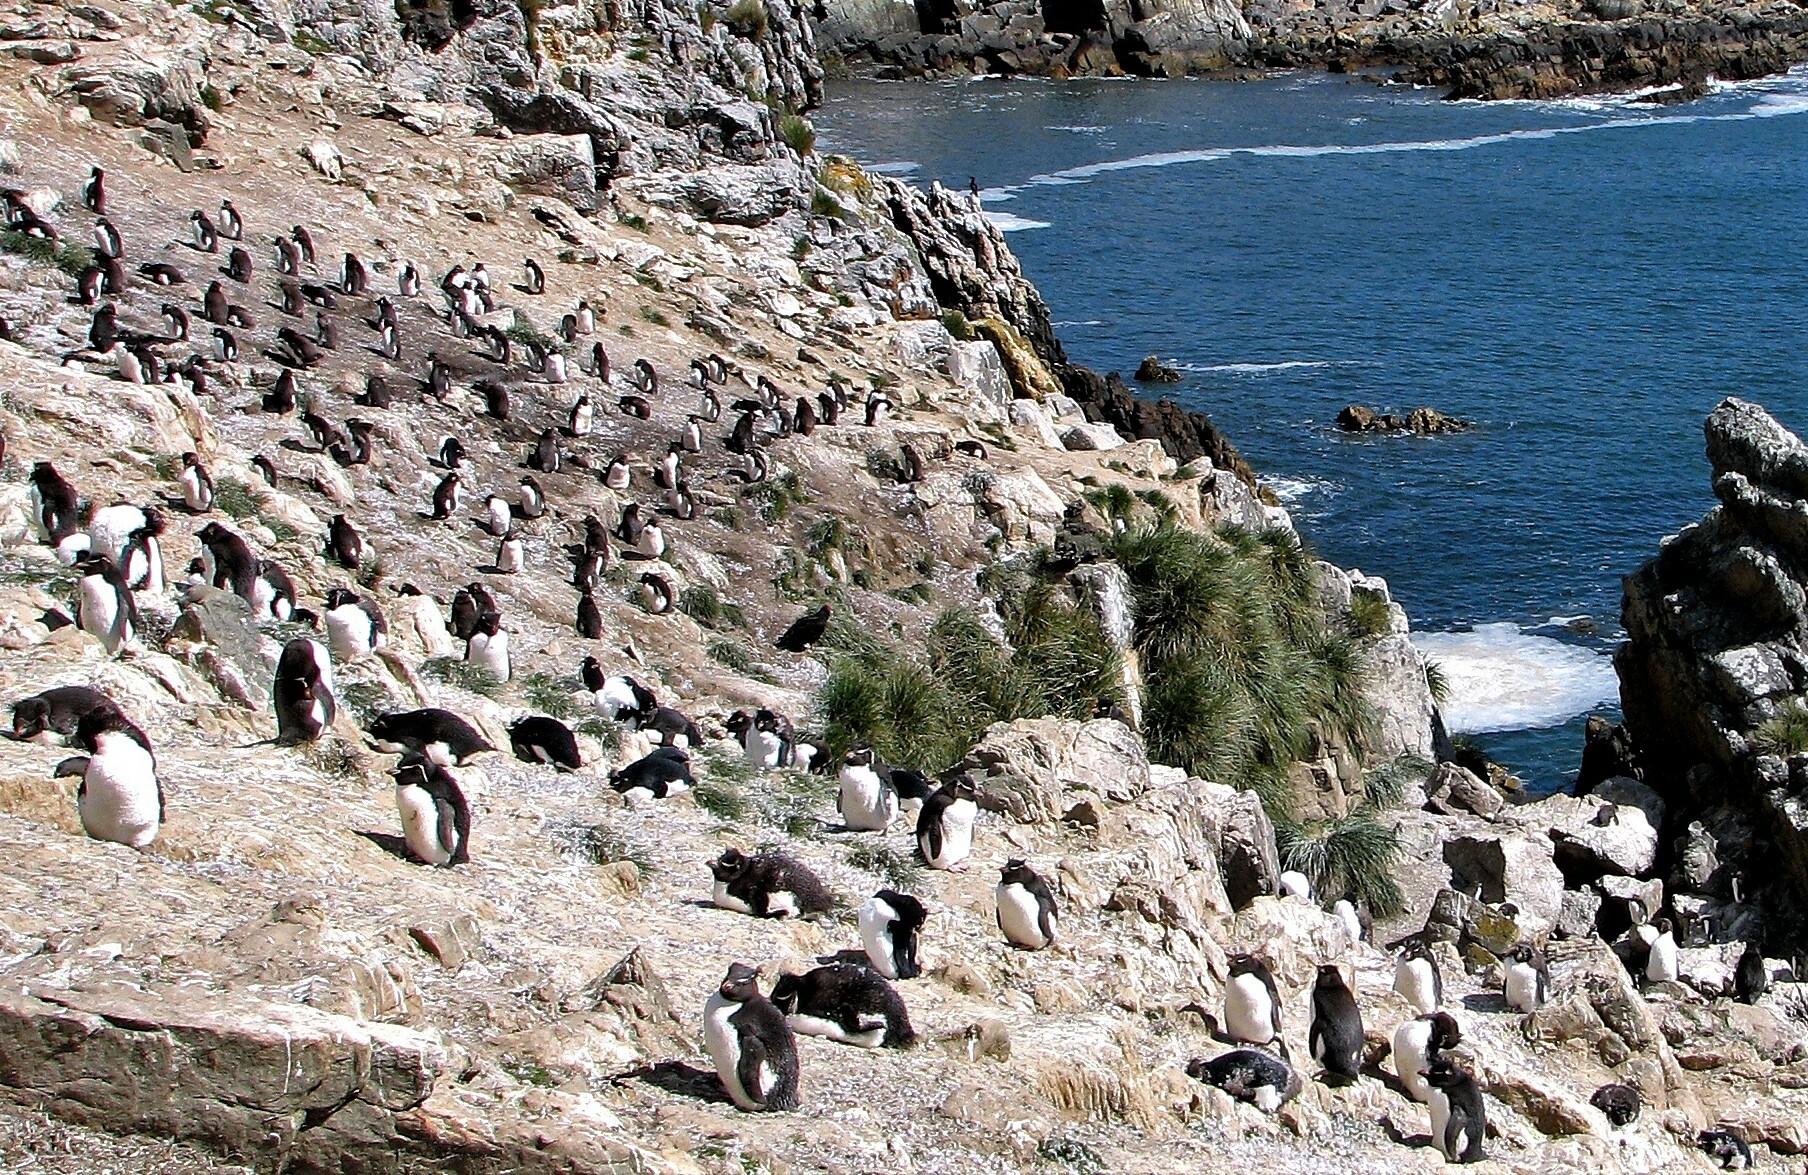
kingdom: Animalia
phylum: Chordata
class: Aves
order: Sphenisciformes
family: Spheniscidae
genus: Eudyptes
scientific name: Eudyptes chrysocome
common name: Southern rockhopper penguin
